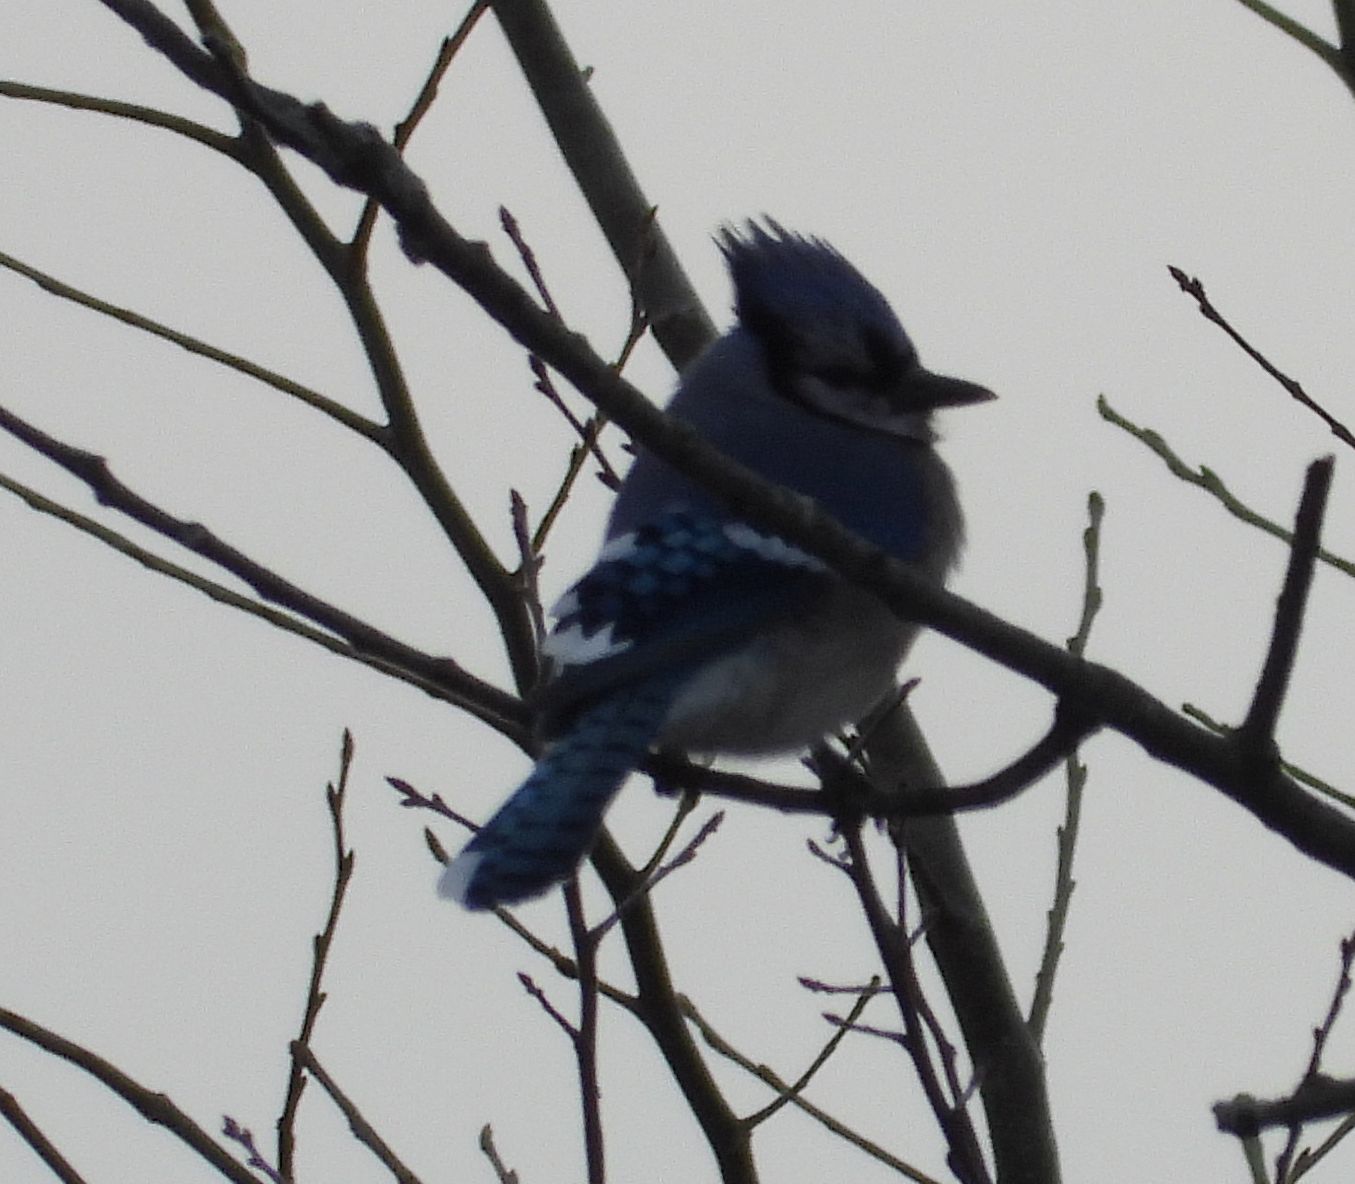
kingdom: Animalia
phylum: Chordata
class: Aves
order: Passeriformes
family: Corvidae
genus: Cyanocitta
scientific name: Cyanocitta cristata
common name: Blue jay
